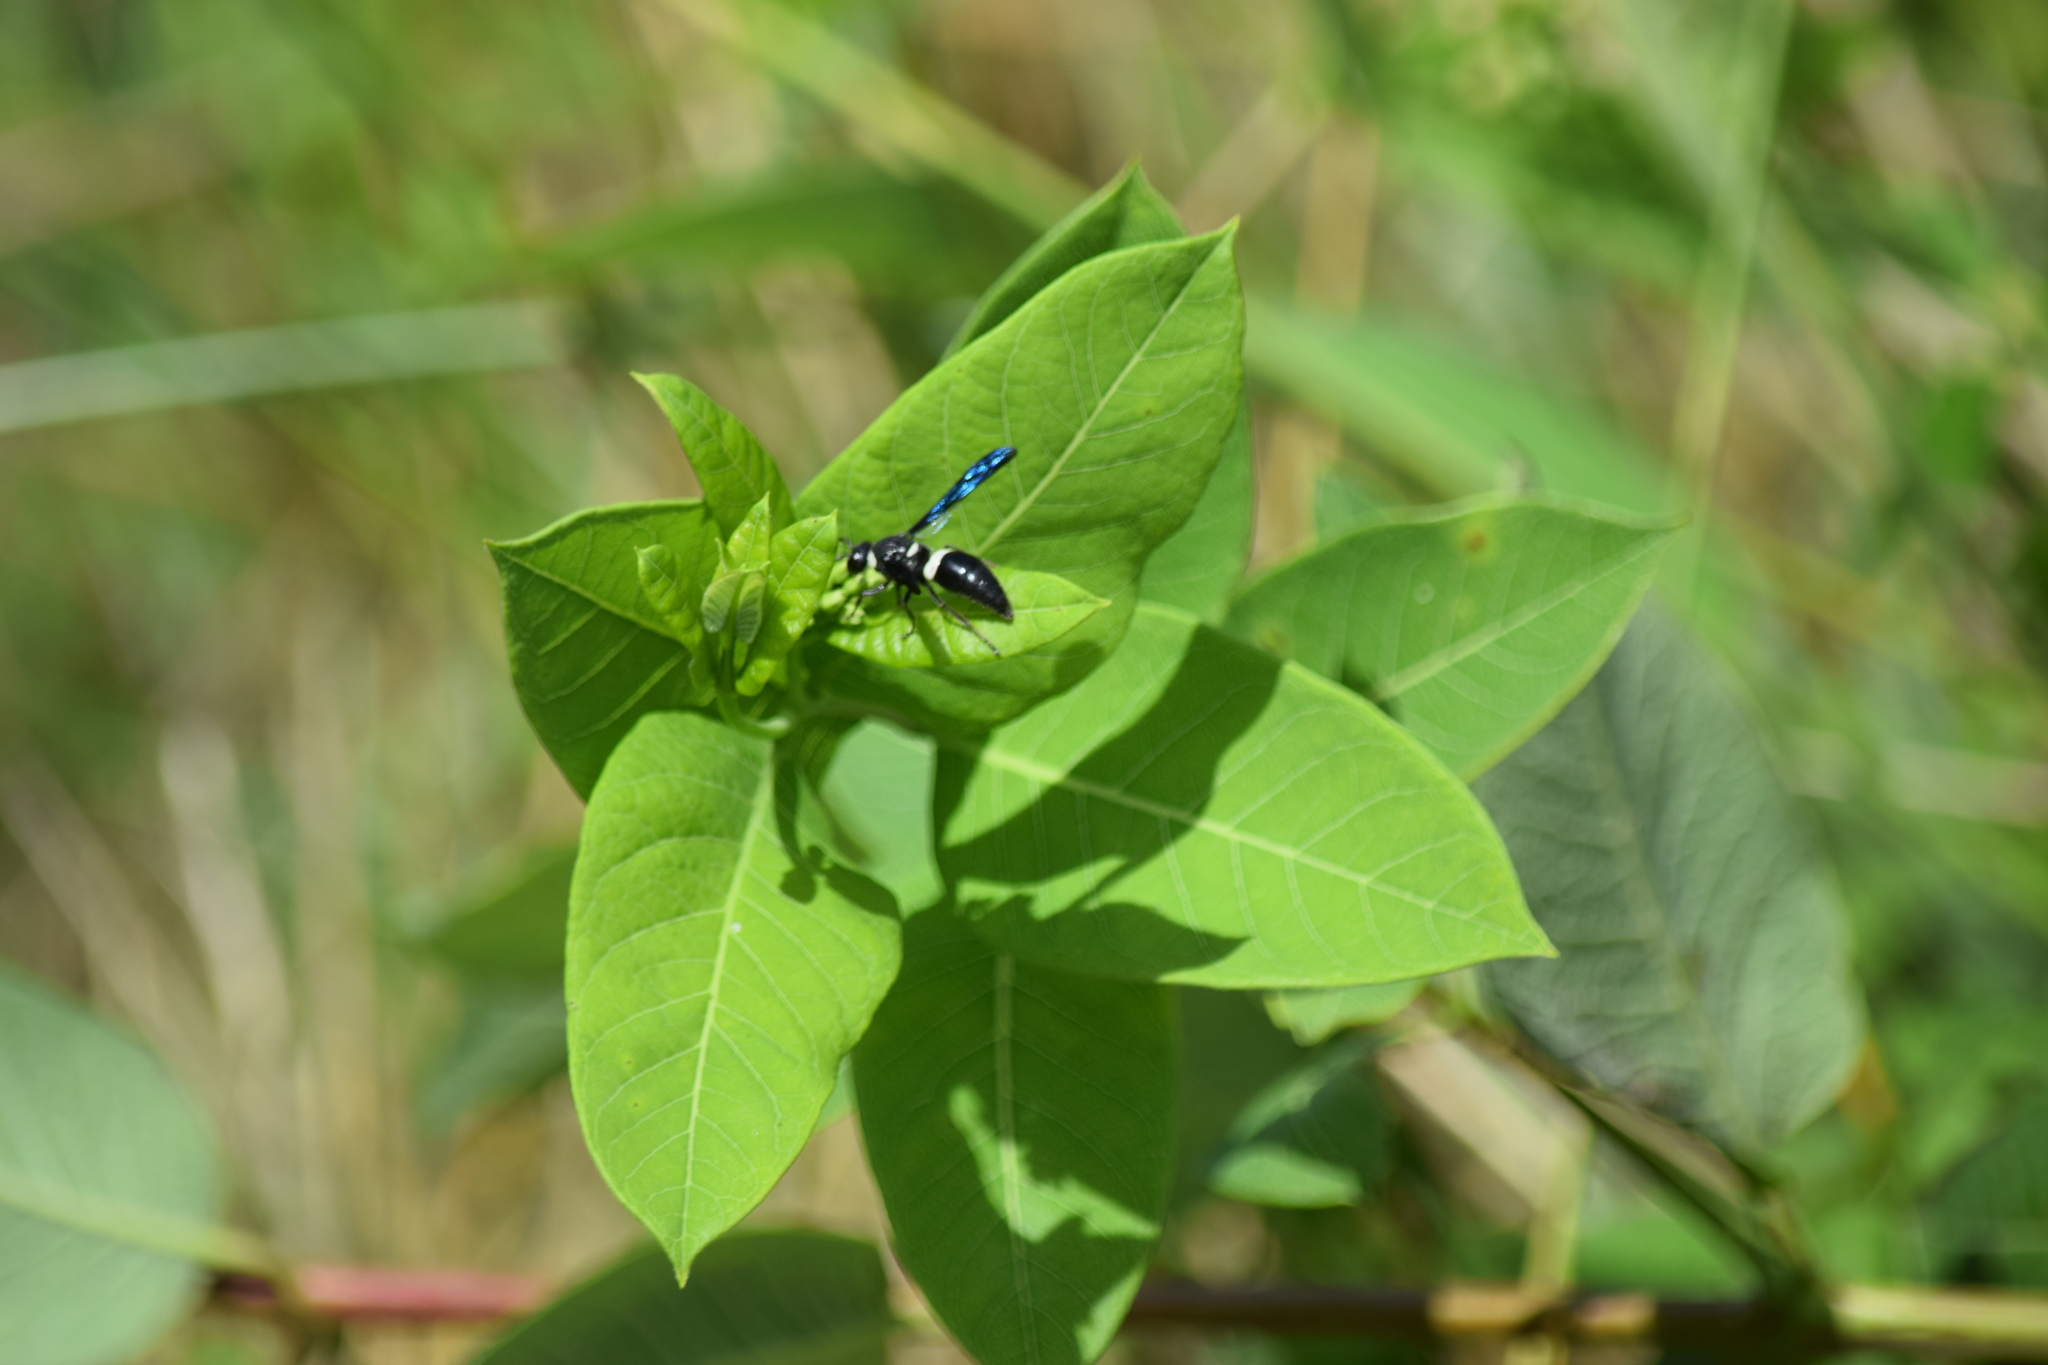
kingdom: Animalia
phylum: Arthropoda
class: Insecta
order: Hymenoptera
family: Eumenidae
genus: Monobia
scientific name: Monobia quadridens
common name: Four-toothed mason wasp
